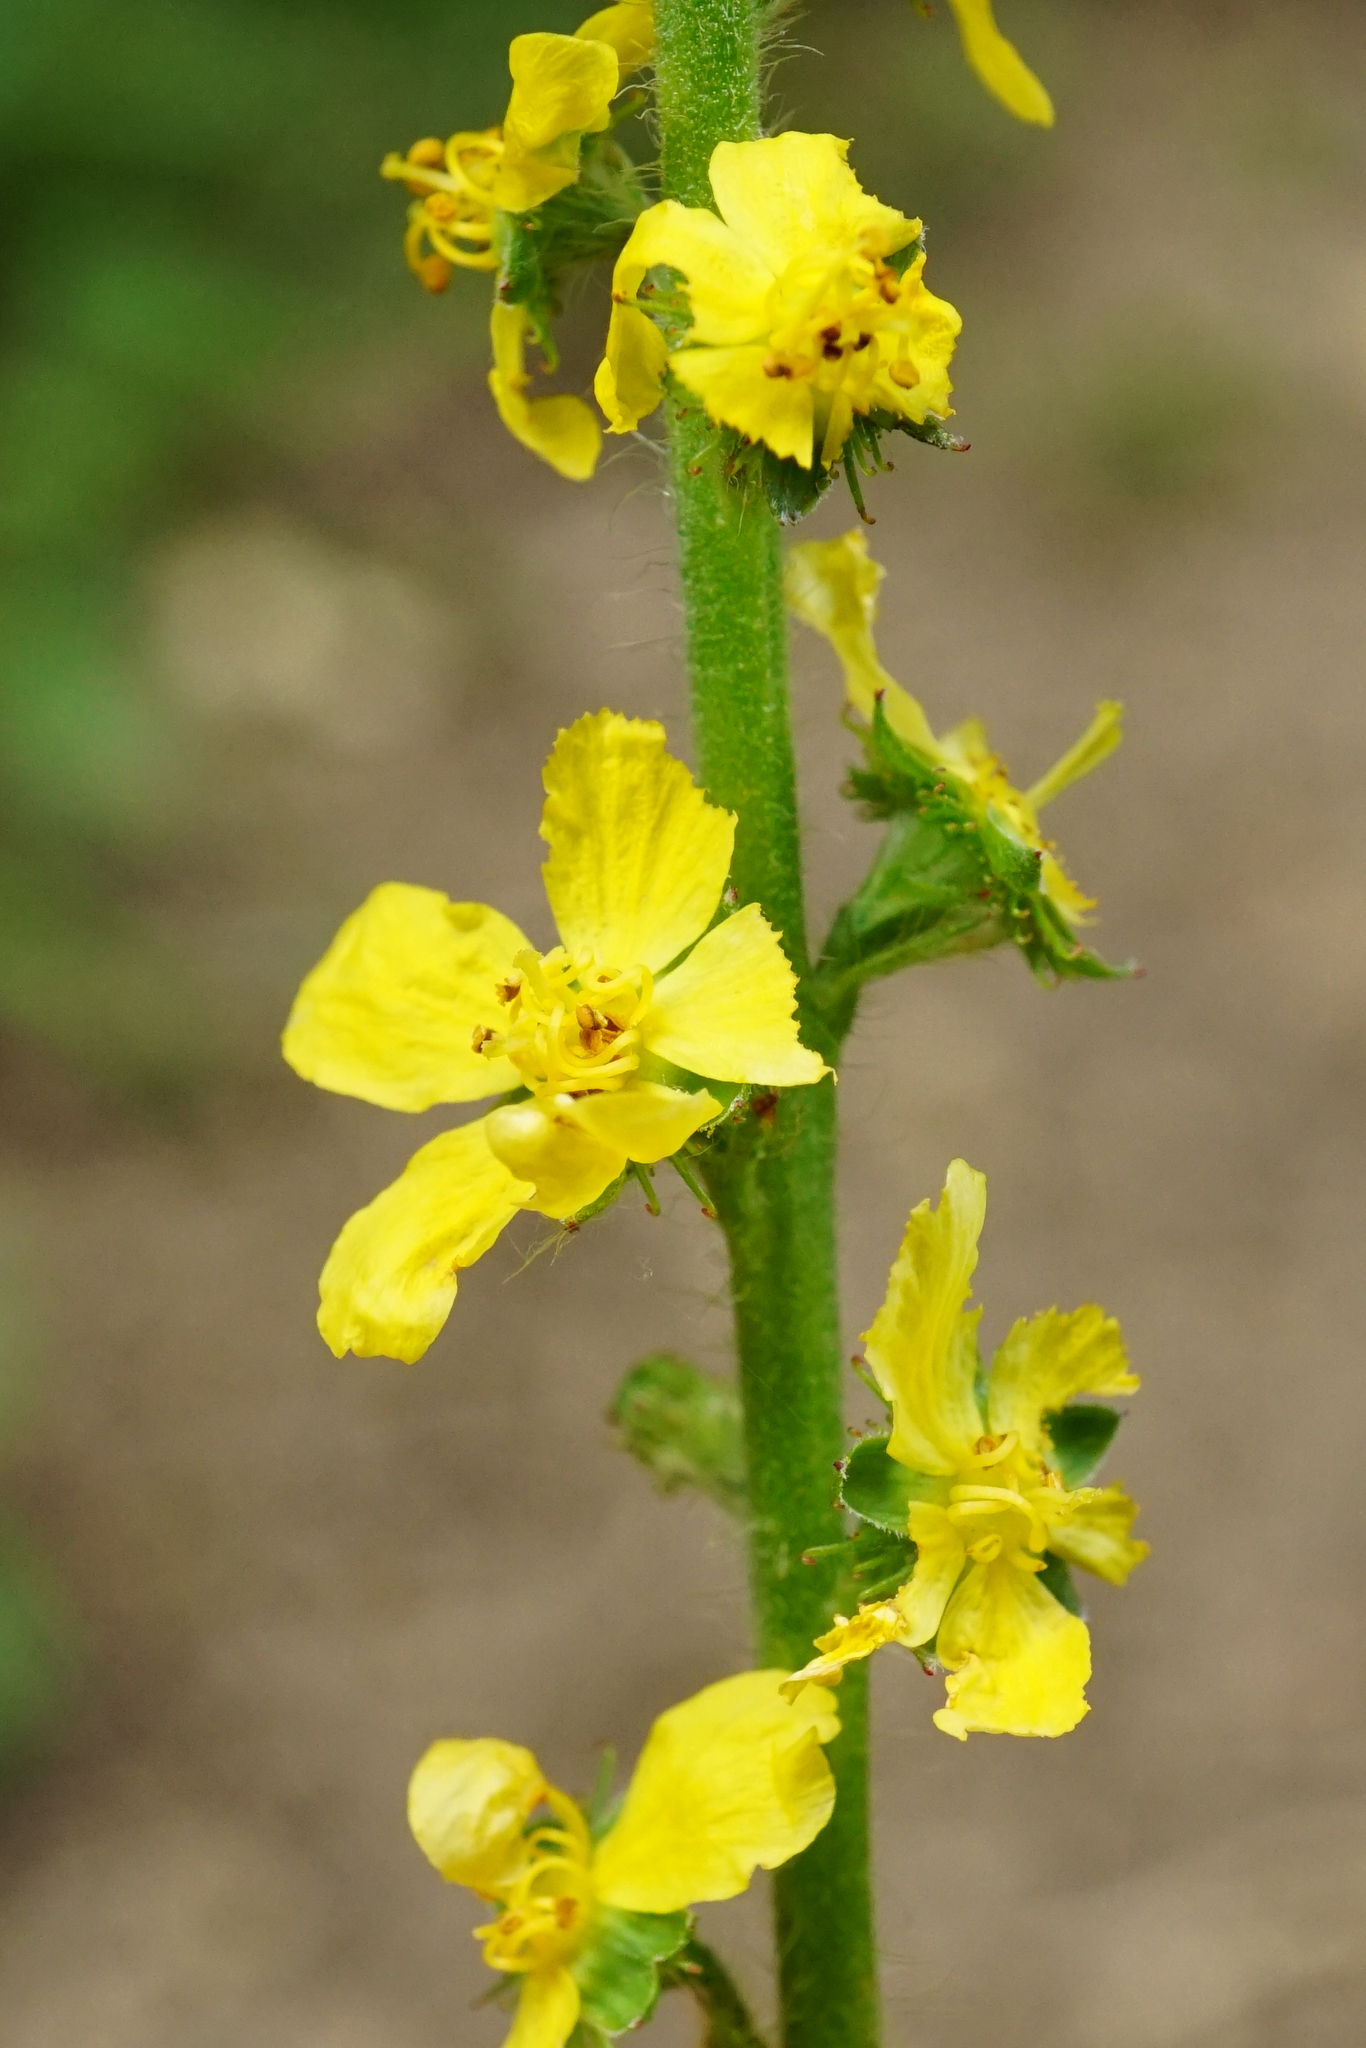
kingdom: Plantae
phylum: Tracheophyta
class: Magnoliopsida
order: Rosales
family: Rosaceae
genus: Agrimonia
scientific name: Agrimonia eupatoria
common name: Agrimony
